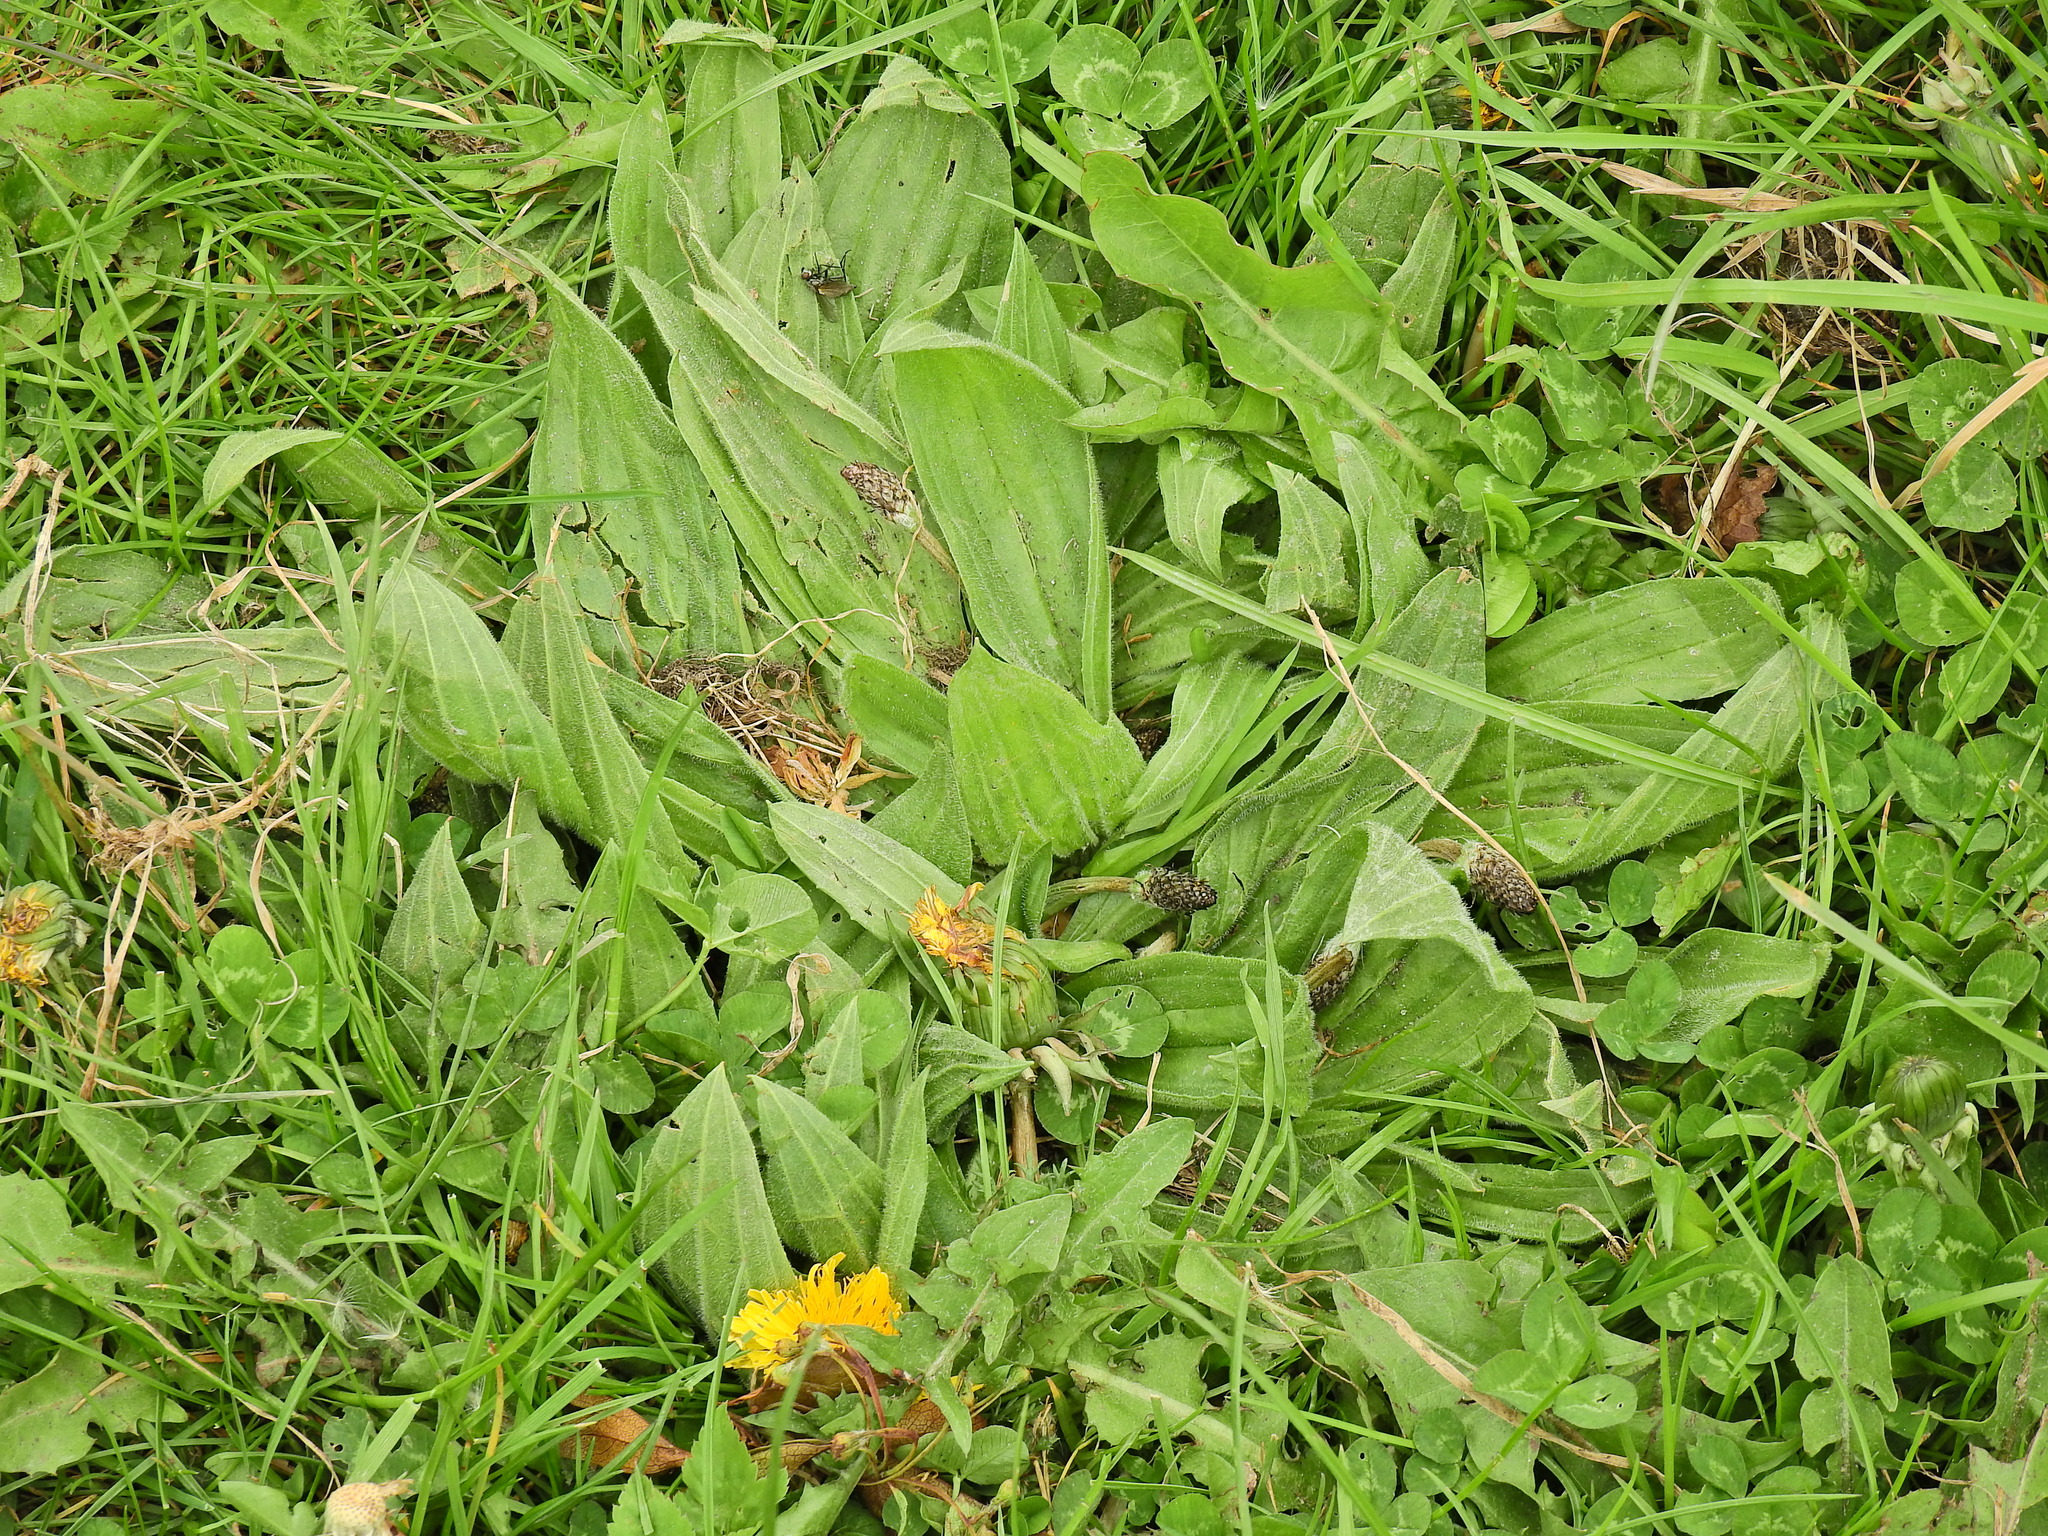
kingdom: Plantae
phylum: Tracheophyta
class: Magnoliopsida
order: Lamiales
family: Plantaginaceae
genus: Plantago
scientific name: Plantago lanceolata
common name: Ribwort plantain
